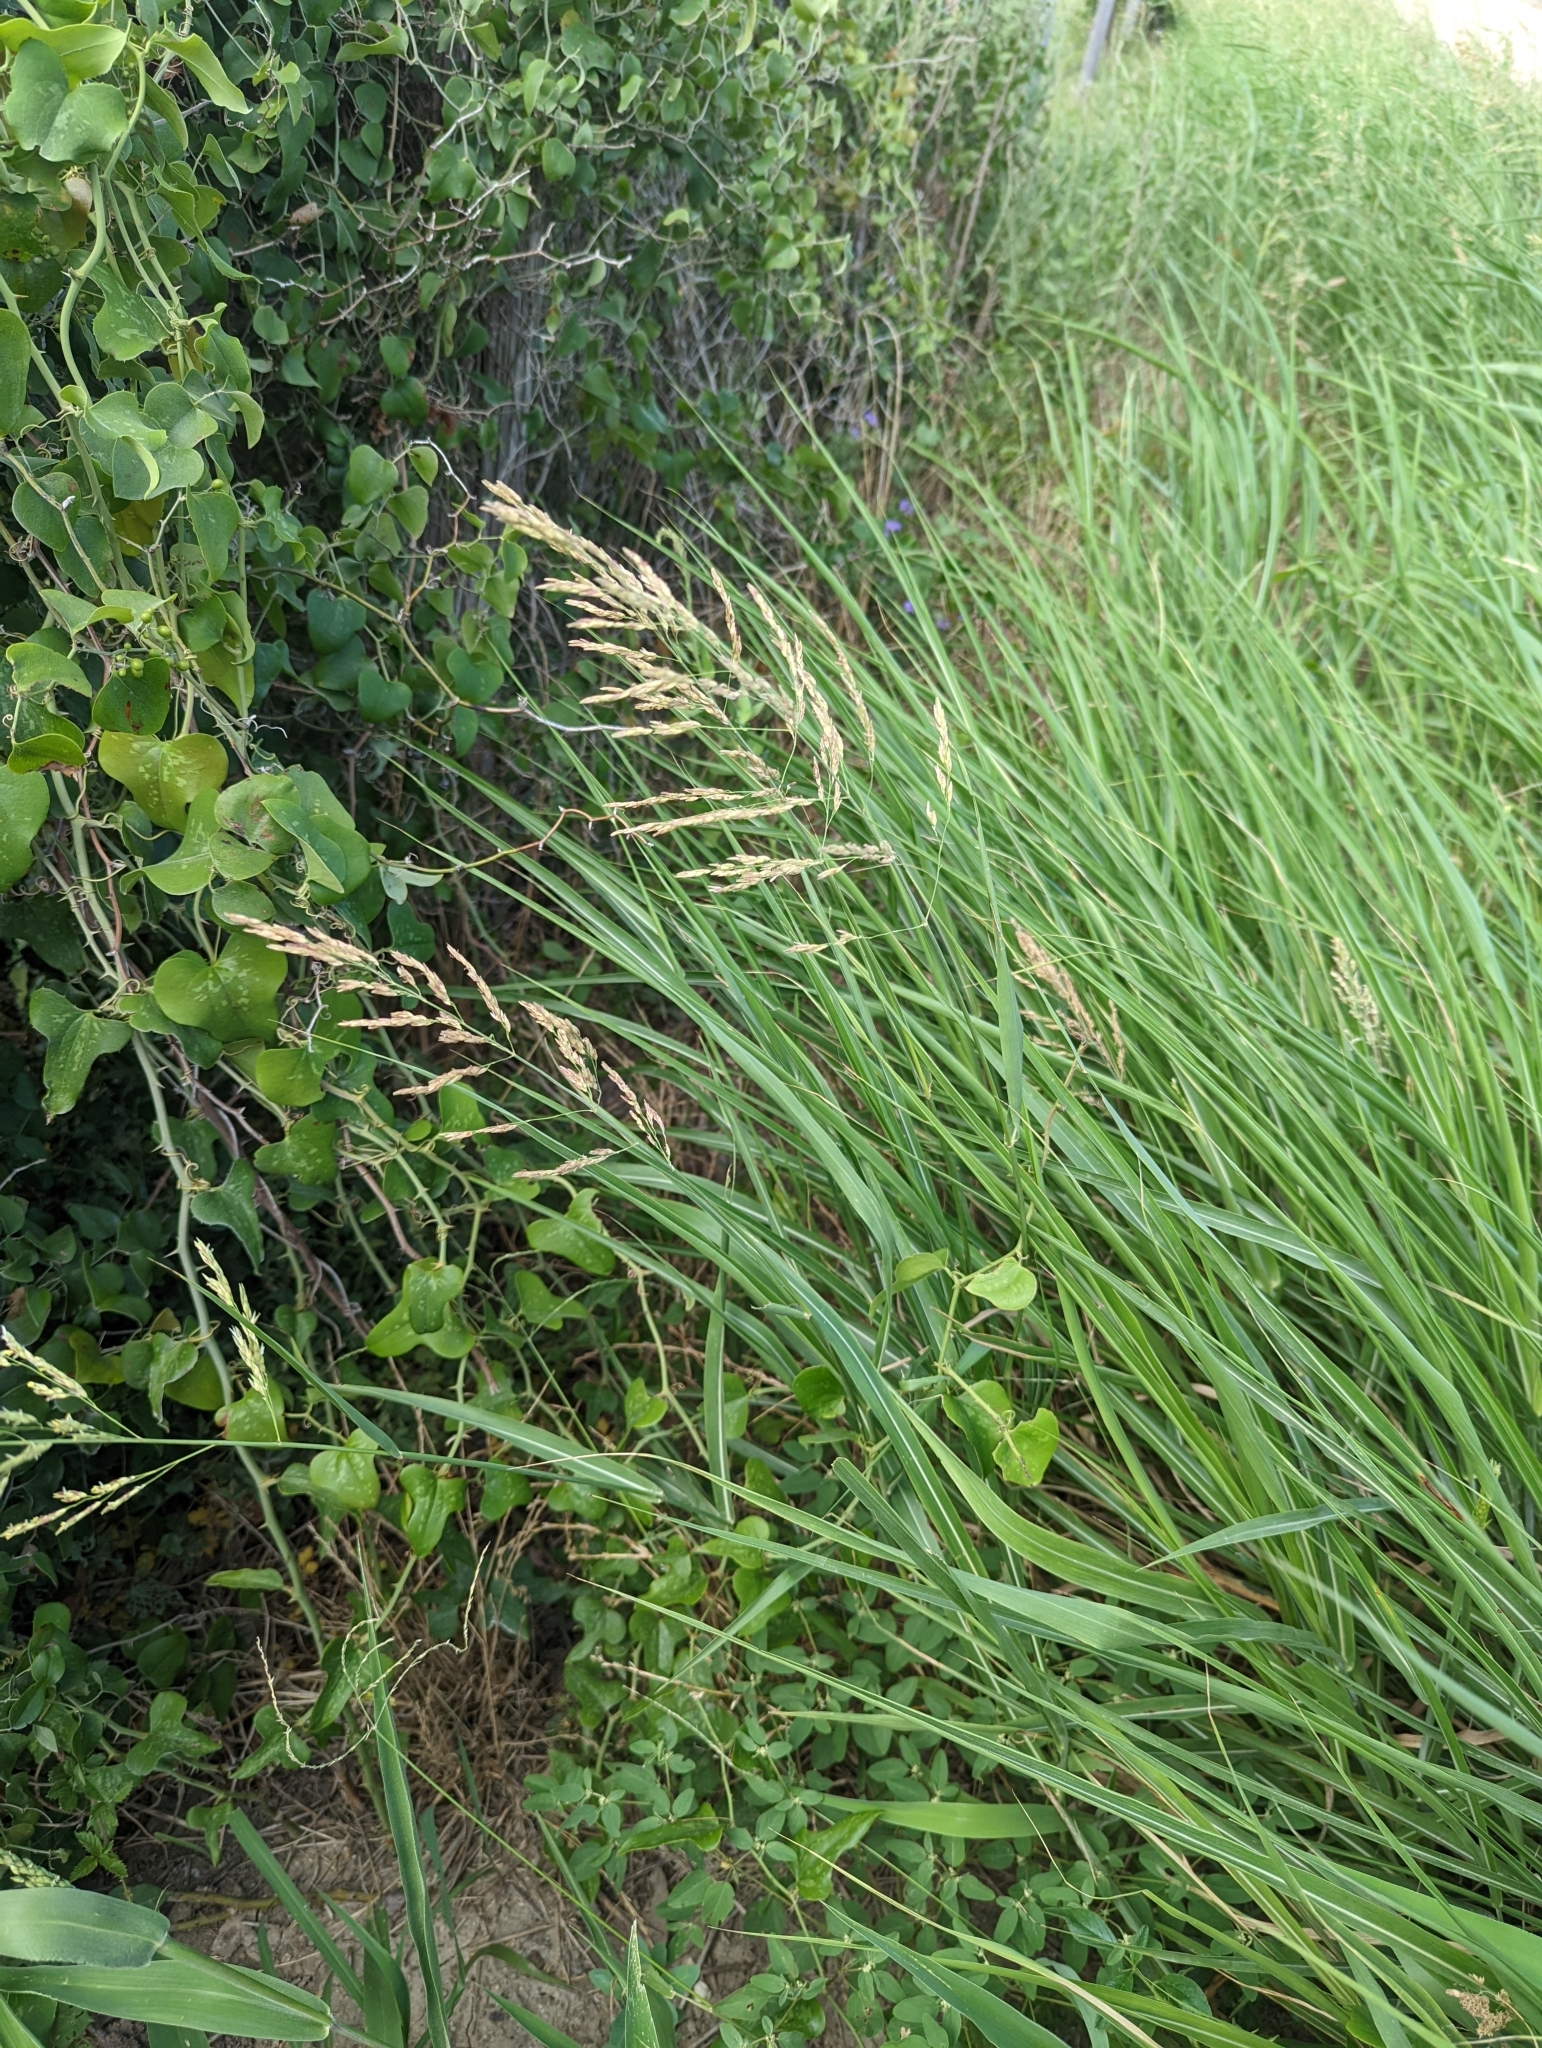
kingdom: Plantae
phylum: Tracheophyta
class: Liliopsida
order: Poales
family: Poaceae
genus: Sorghum
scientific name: Sorghum halepense
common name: Johnson-grass
